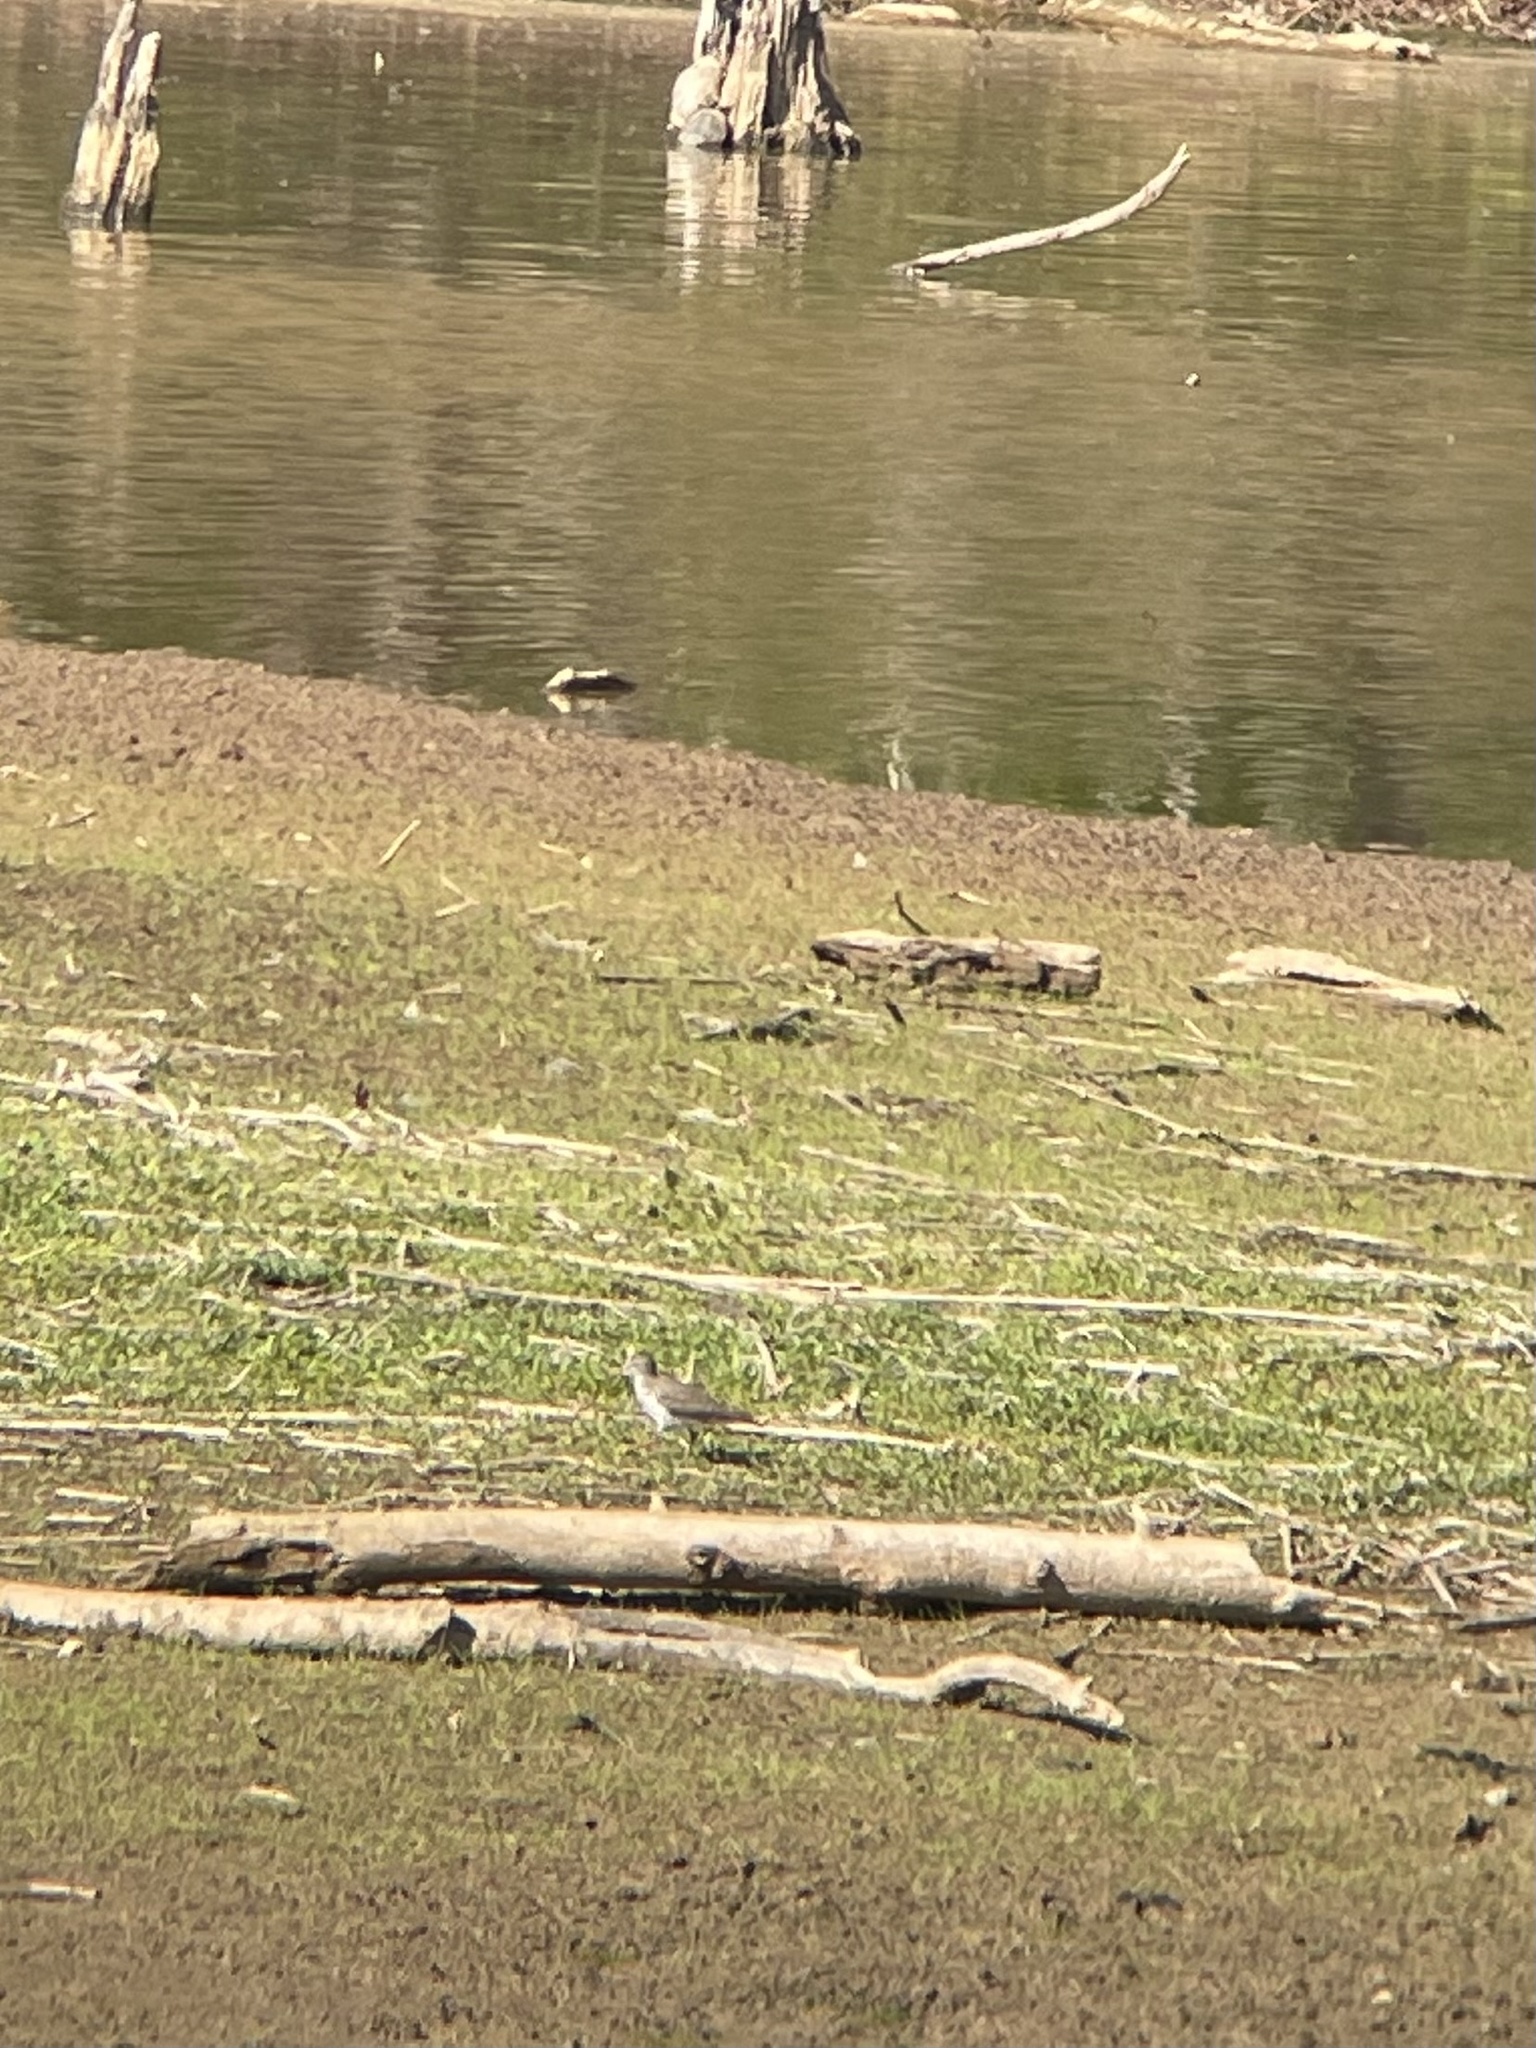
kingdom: Animalia
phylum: Chordata
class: Aves
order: Charadriiformes
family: Scolopacidae
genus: Actitis
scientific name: Actitis macularius
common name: Spotted sandpiper
